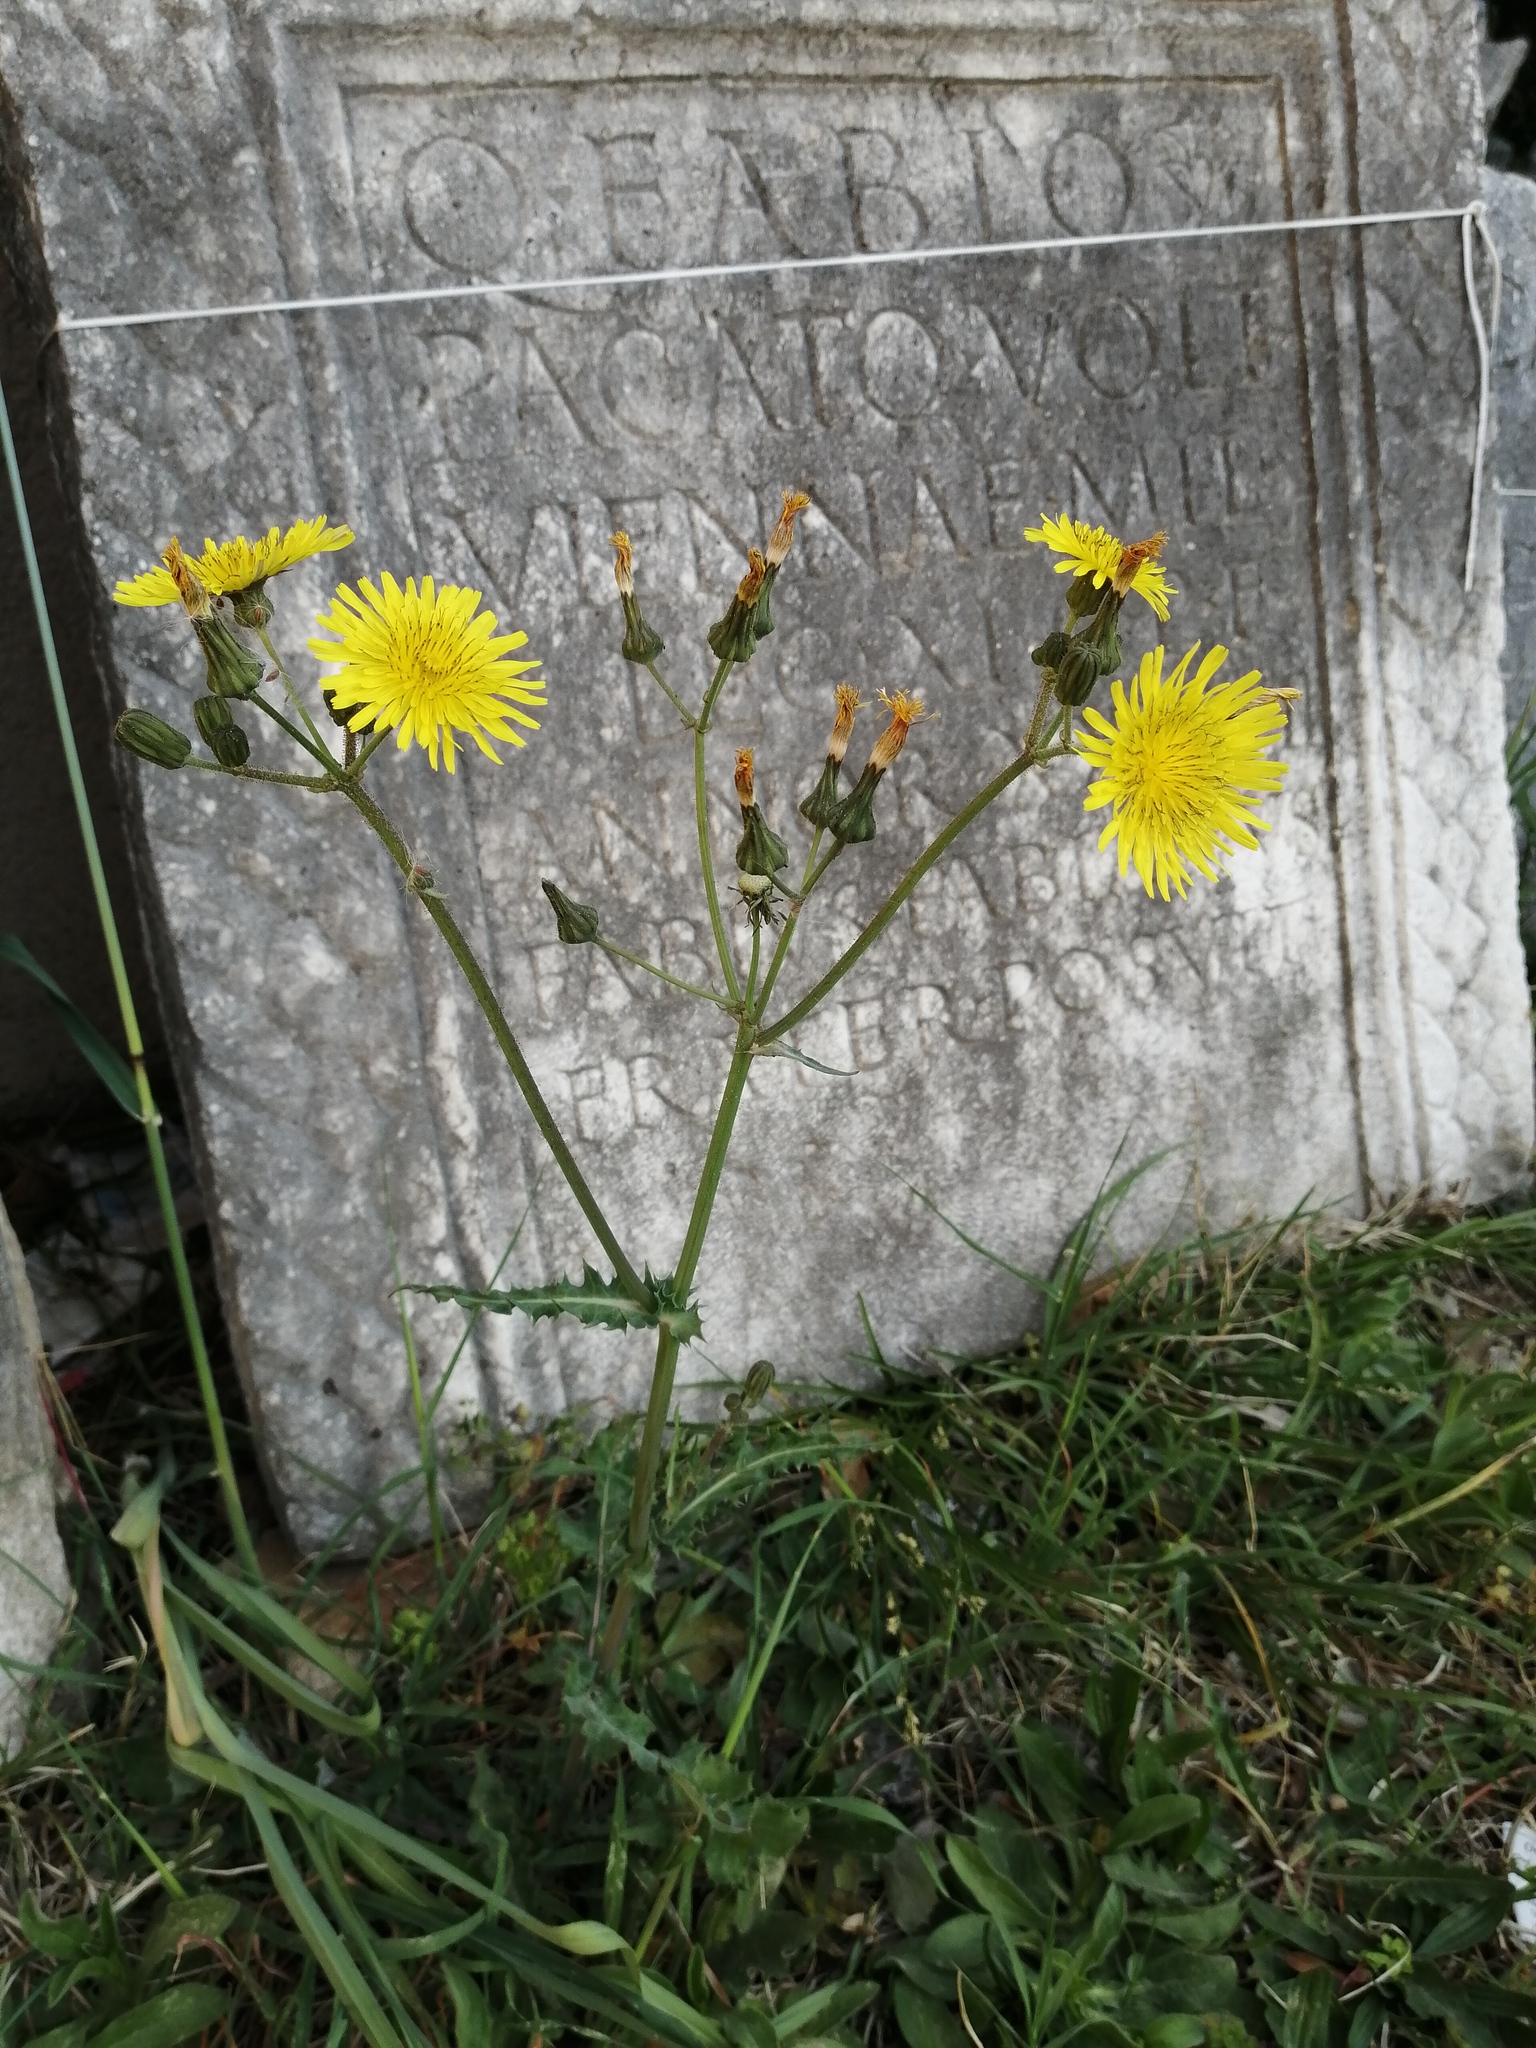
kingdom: Plantae
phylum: Tracheophyta
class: Magnoliopsida
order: Asterales
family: Asteraceae
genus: Sonchus
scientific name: Sonchus asper
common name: Prickly sow-thistle
